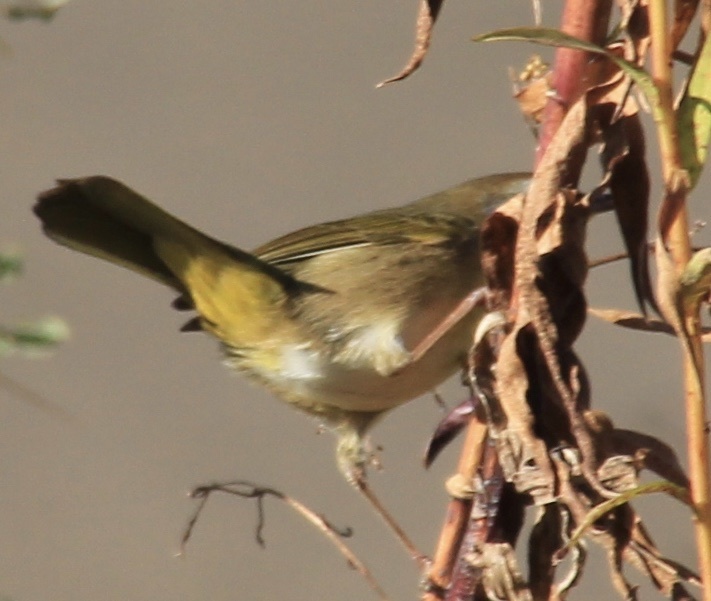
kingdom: Animalia
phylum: Chordata
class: Aves
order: Passeriformes
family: Parulidae
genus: Geothlypis
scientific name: Geothlypis trichas
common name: Common yellowthroat
